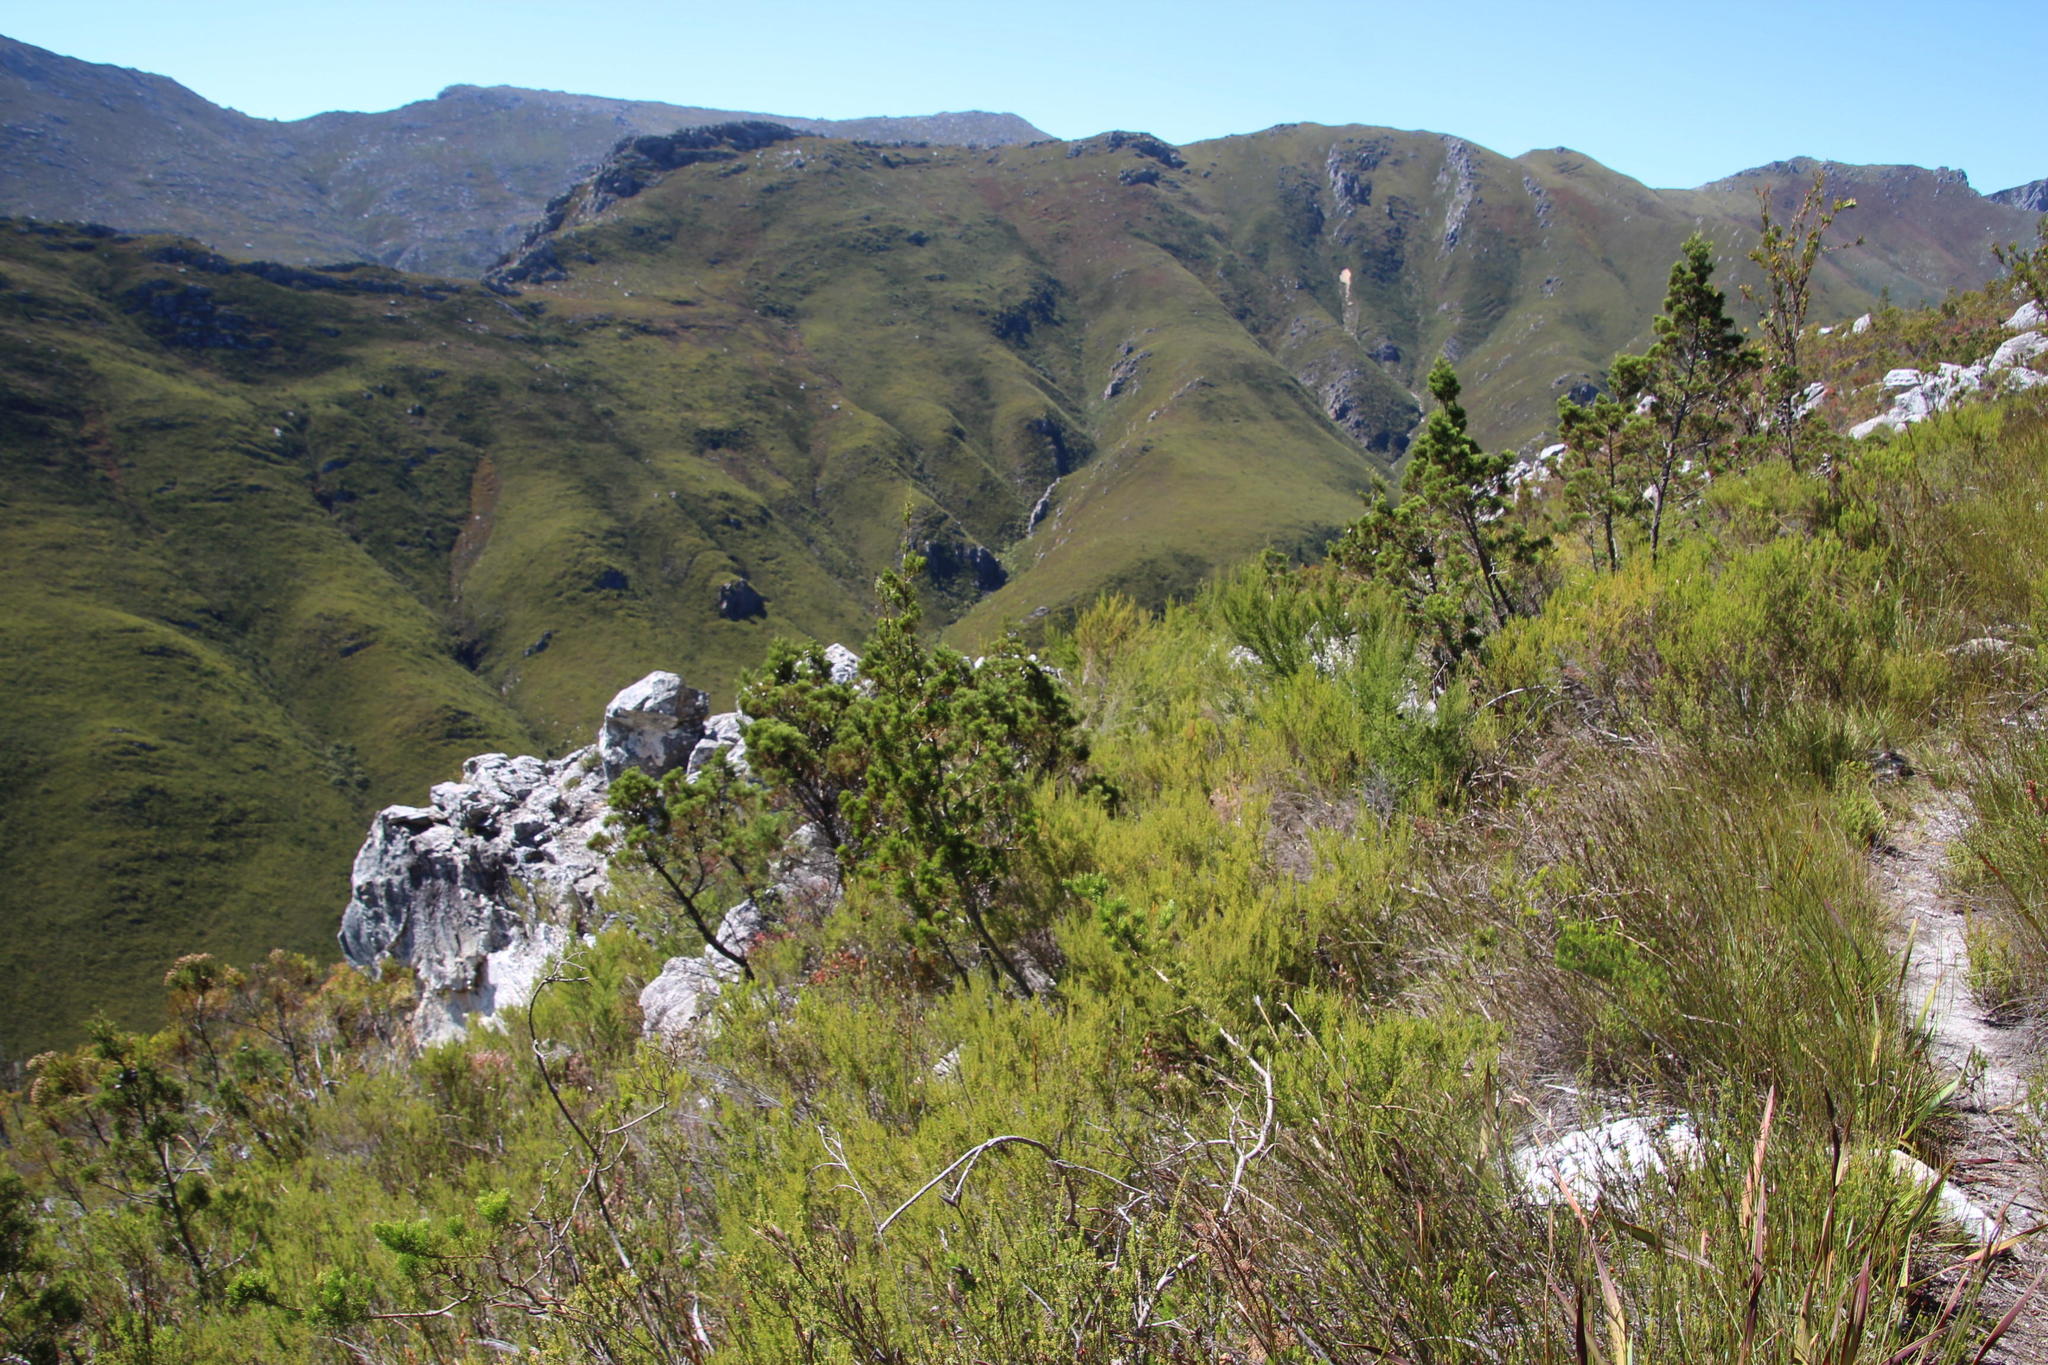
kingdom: Plantae
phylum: Tracheophyta
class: Pinopsida
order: Pinales
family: Cupressaceae
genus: Widdringtonia
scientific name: Widdringtonia nodiflora
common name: Cape cypress
